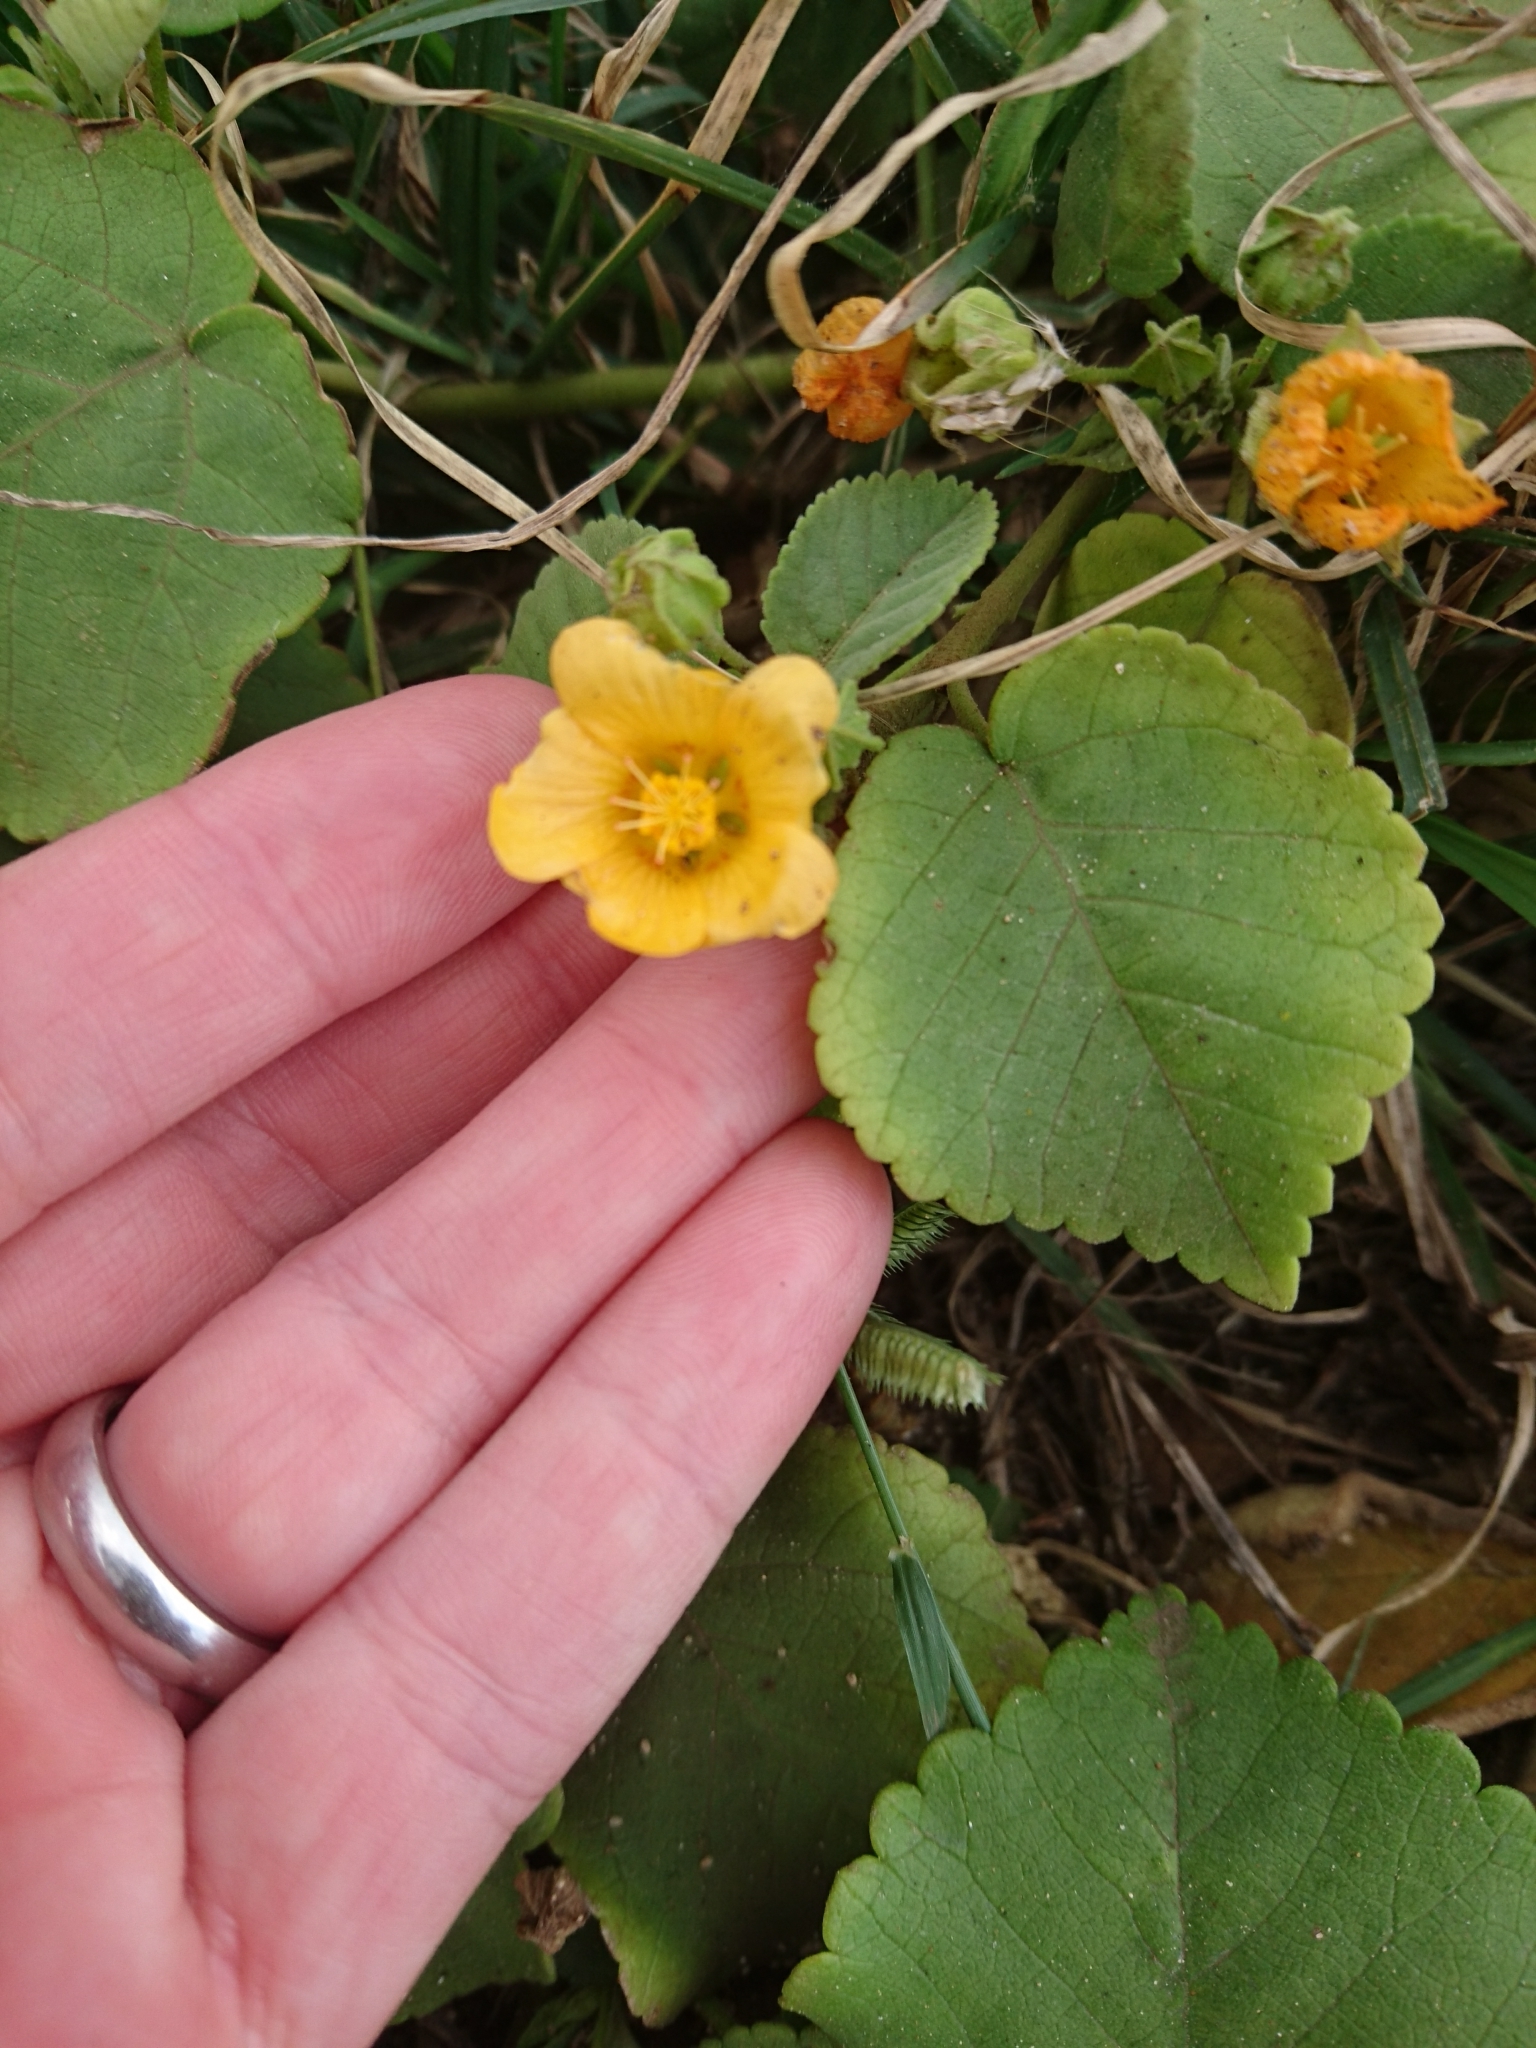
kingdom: Plantae
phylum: Tracheophyta
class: Magnoliopsida
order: Malvales
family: Malvaceae
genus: Sida
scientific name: Sida fallax
